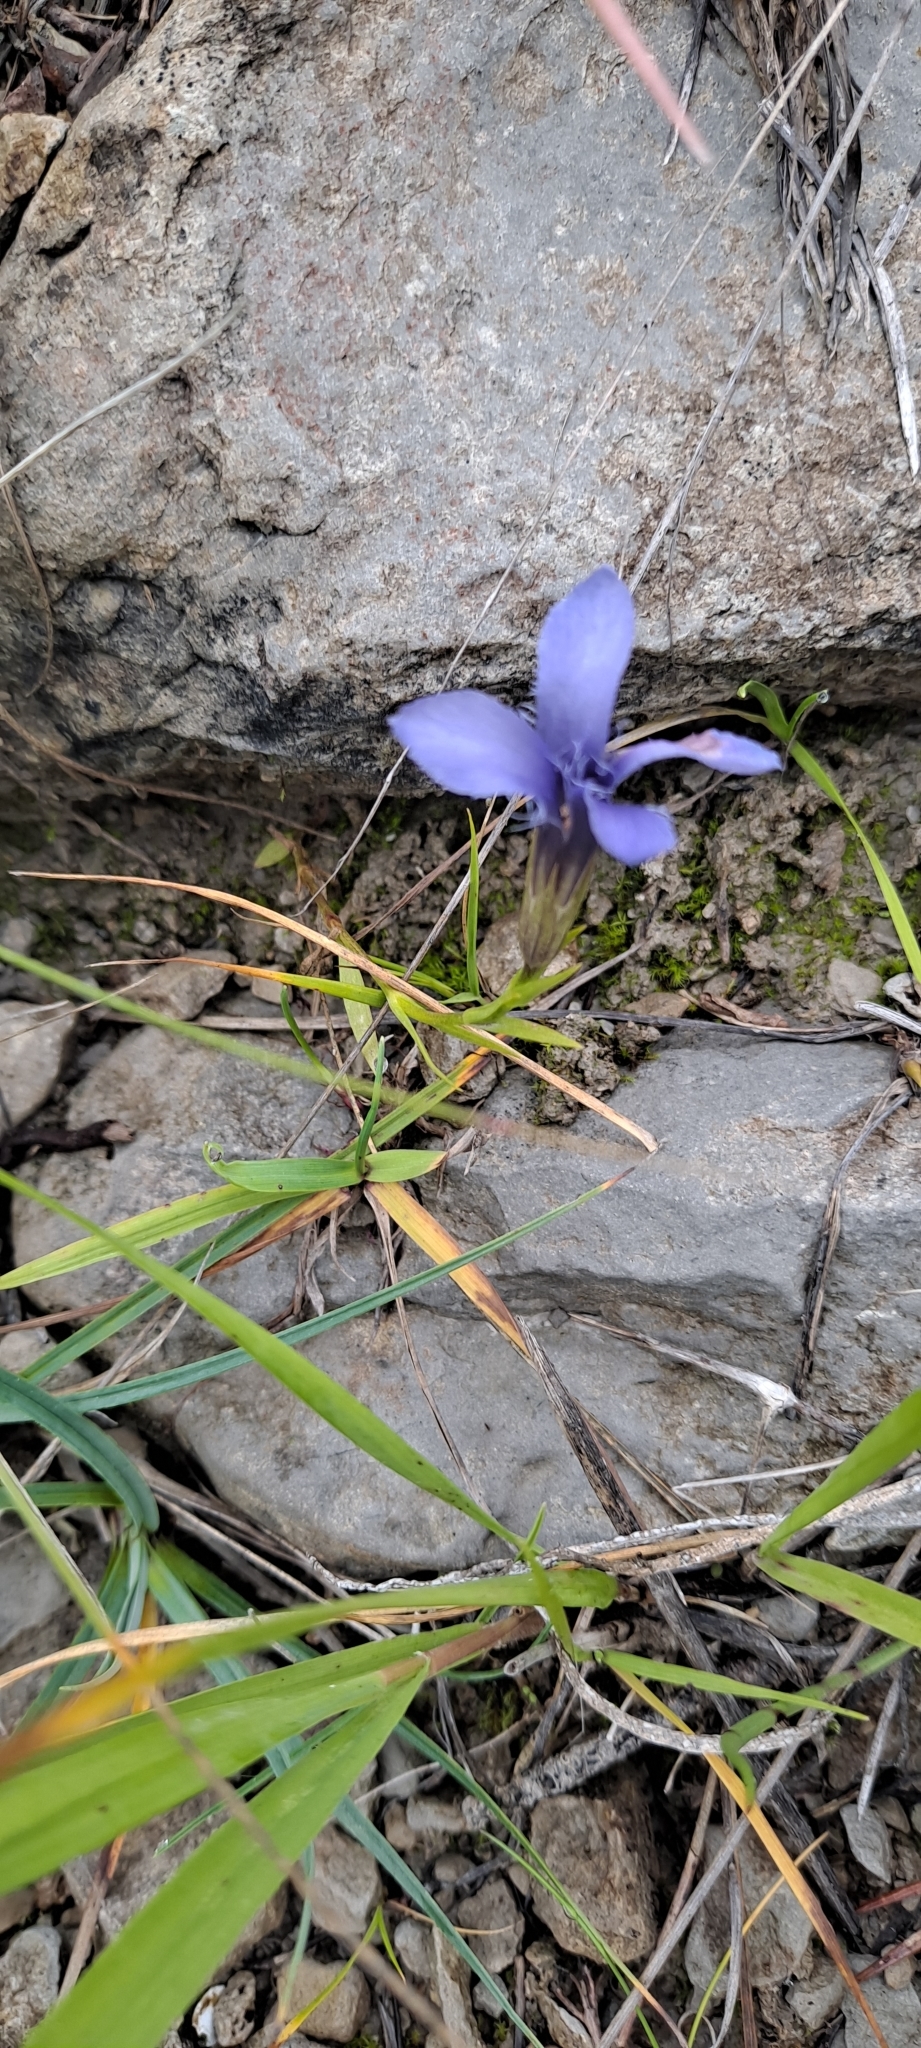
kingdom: Plantae
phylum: Tracheophyta
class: Magnoliopsida
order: Gentianales
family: Gentianaceae
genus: Gentianopsis
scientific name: Gentianopsis ciliata
